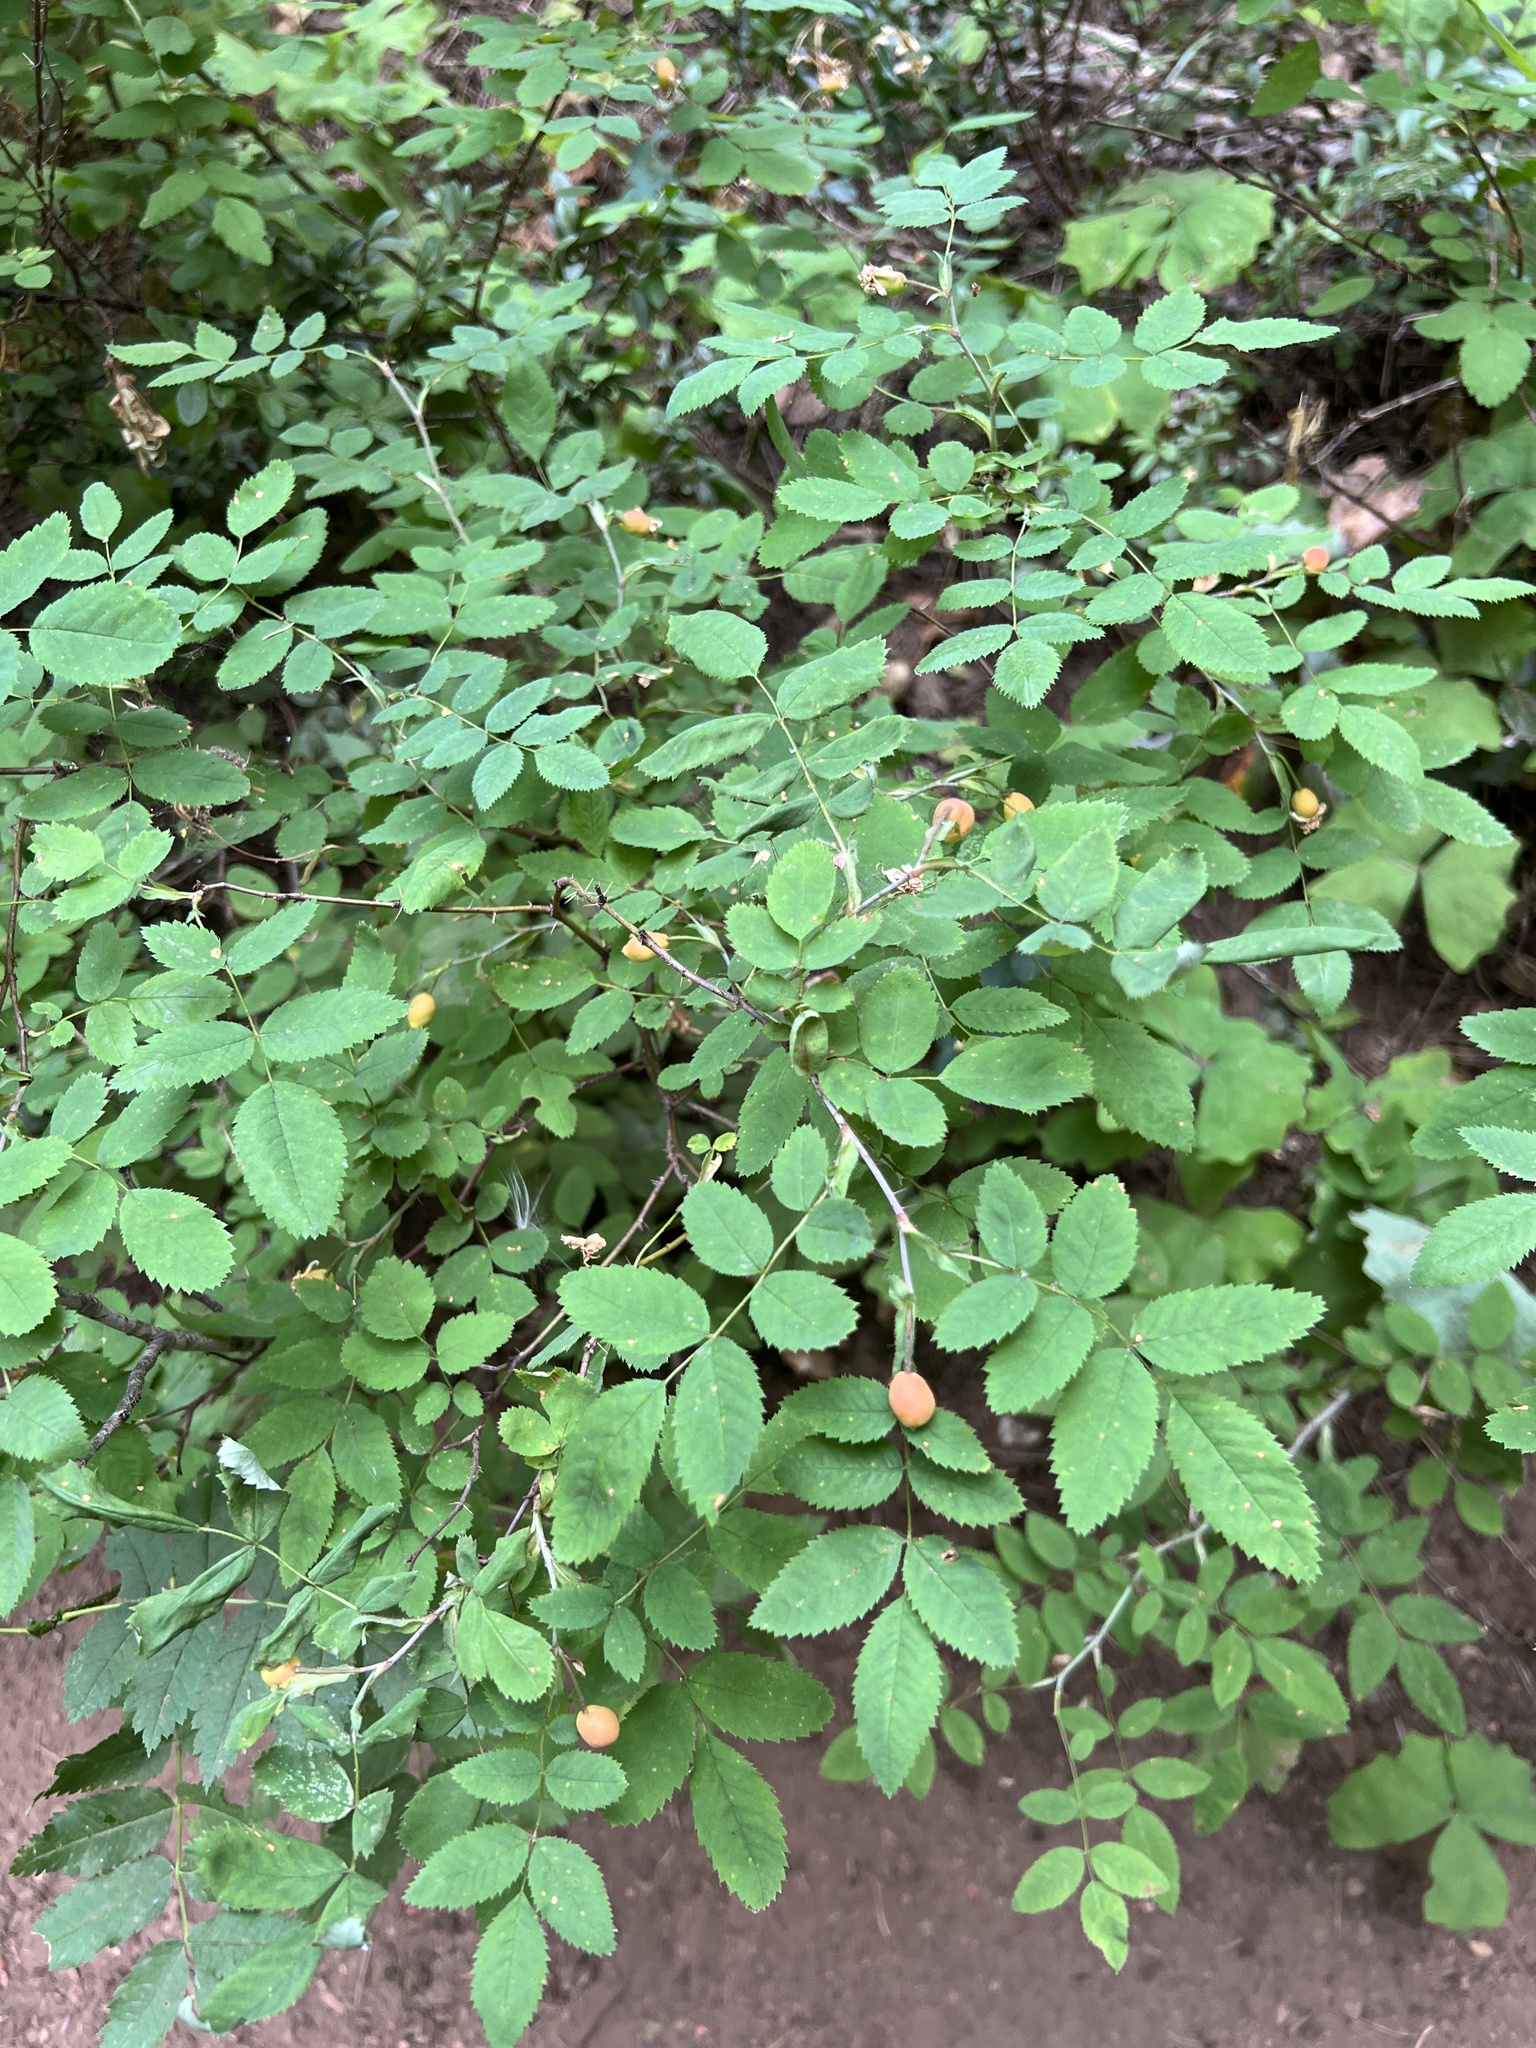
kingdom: Plantae
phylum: Tracheophyta
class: Magnoliopsida
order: Rosales
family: Rosaceae
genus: Rosa
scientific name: Rosa gymnocarpa
